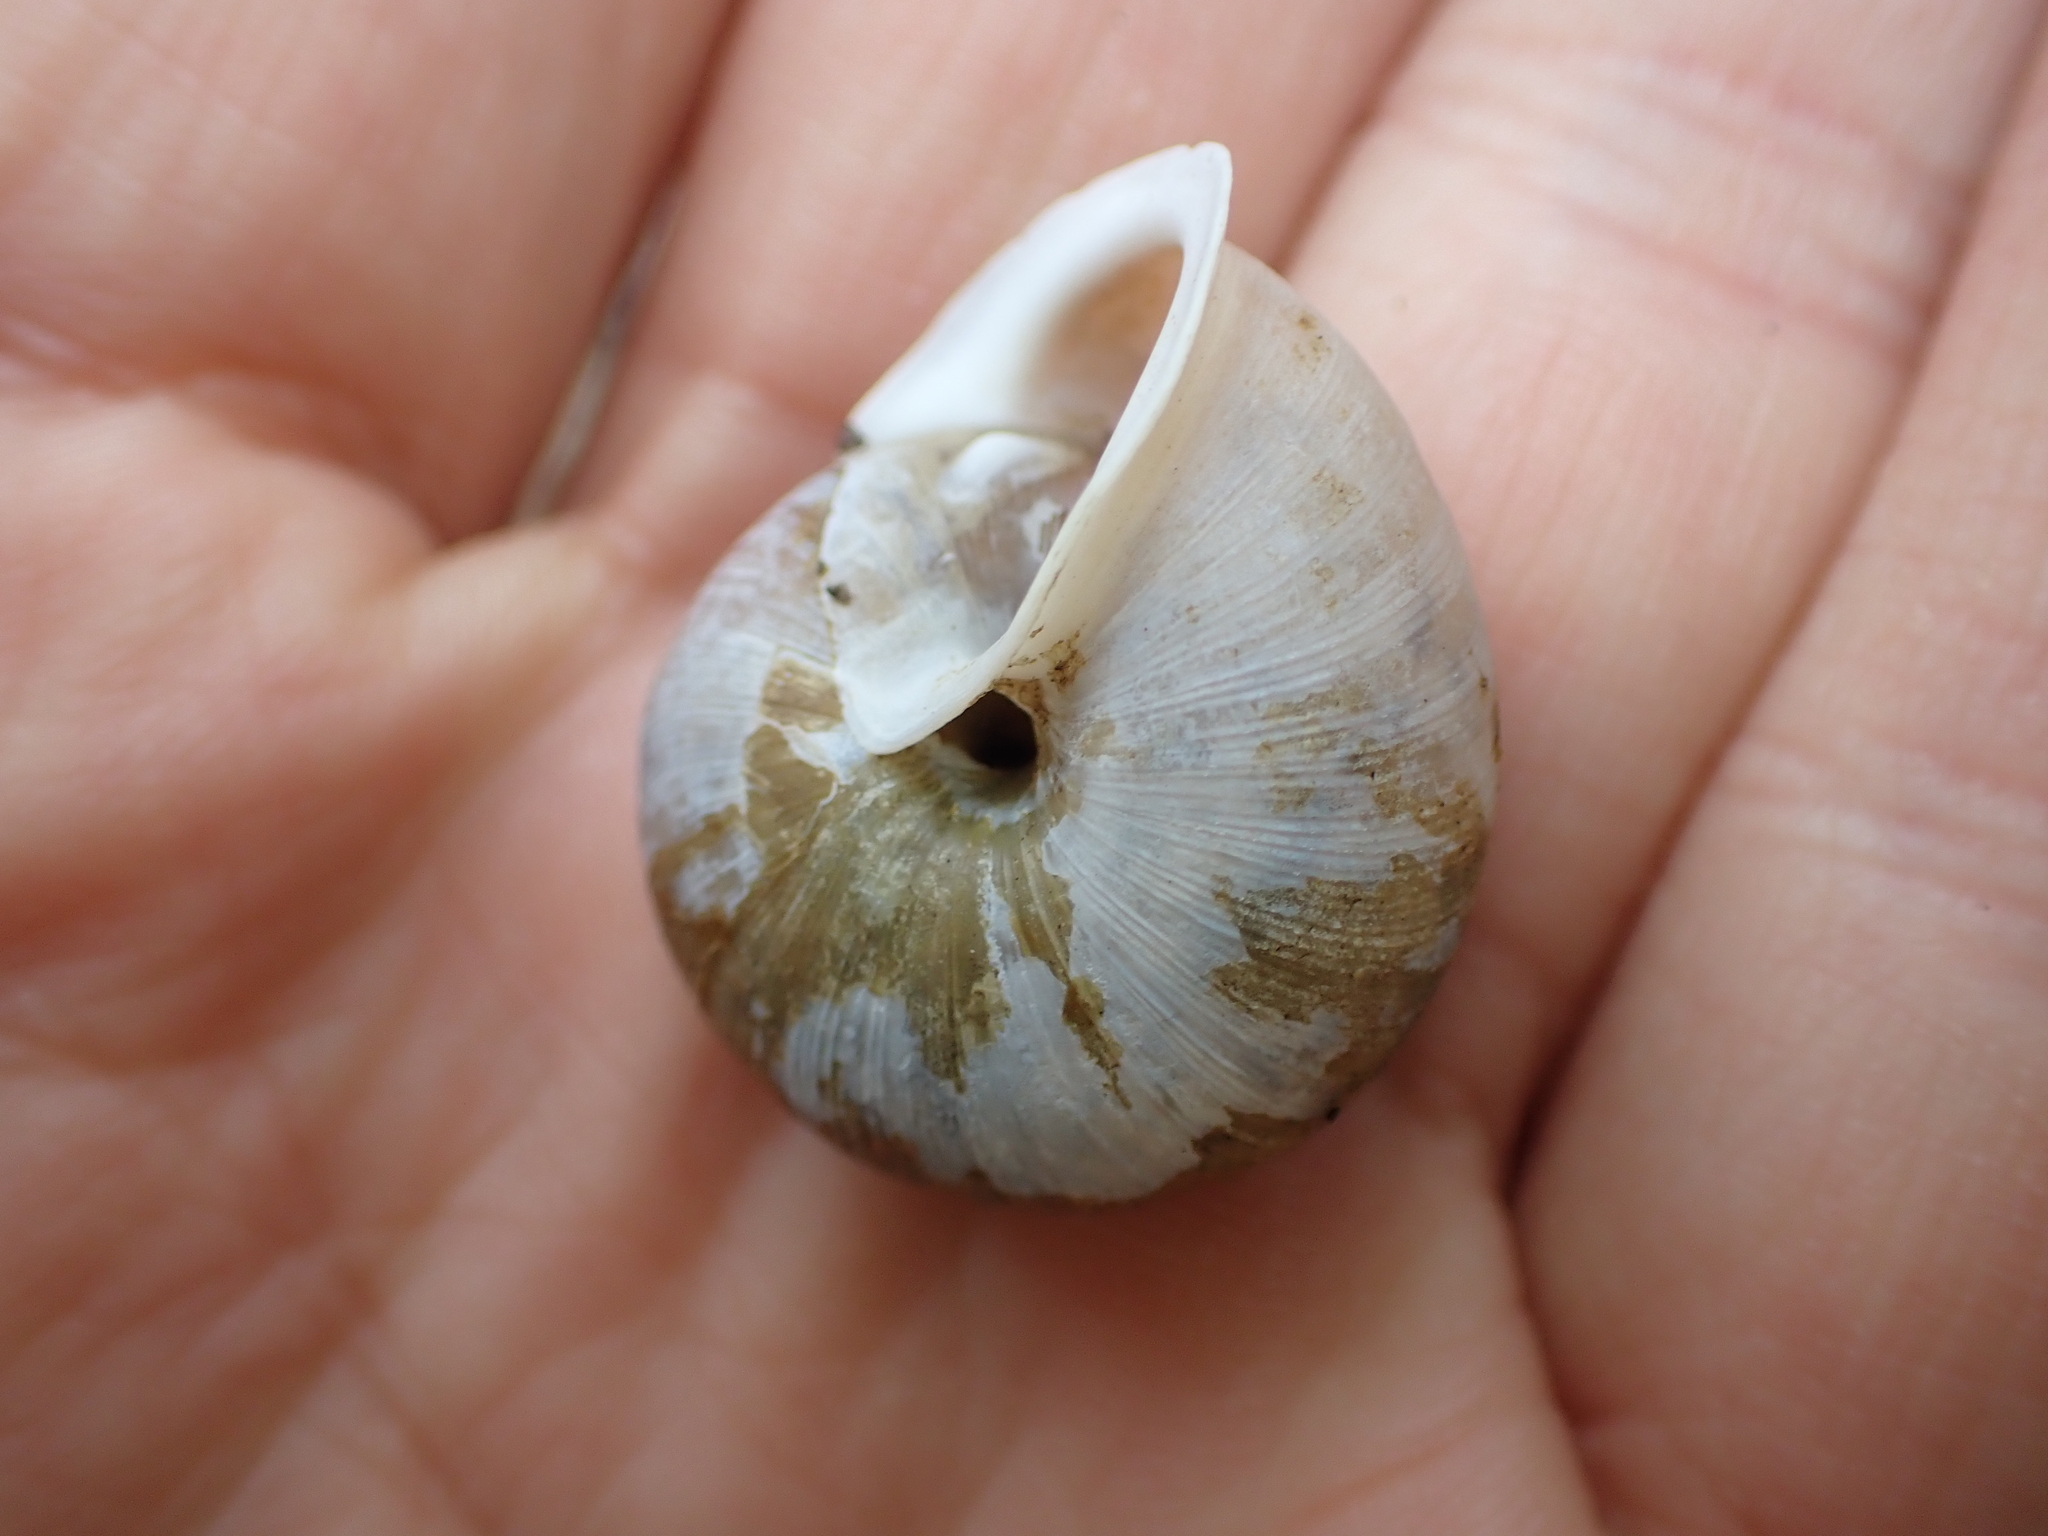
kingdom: Animalia
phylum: Mollusca
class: Gastropoda
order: Stylommatophora
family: Polygyridae
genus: Mesodon
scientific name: Mesodon thyroidus
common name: White-lip globe
